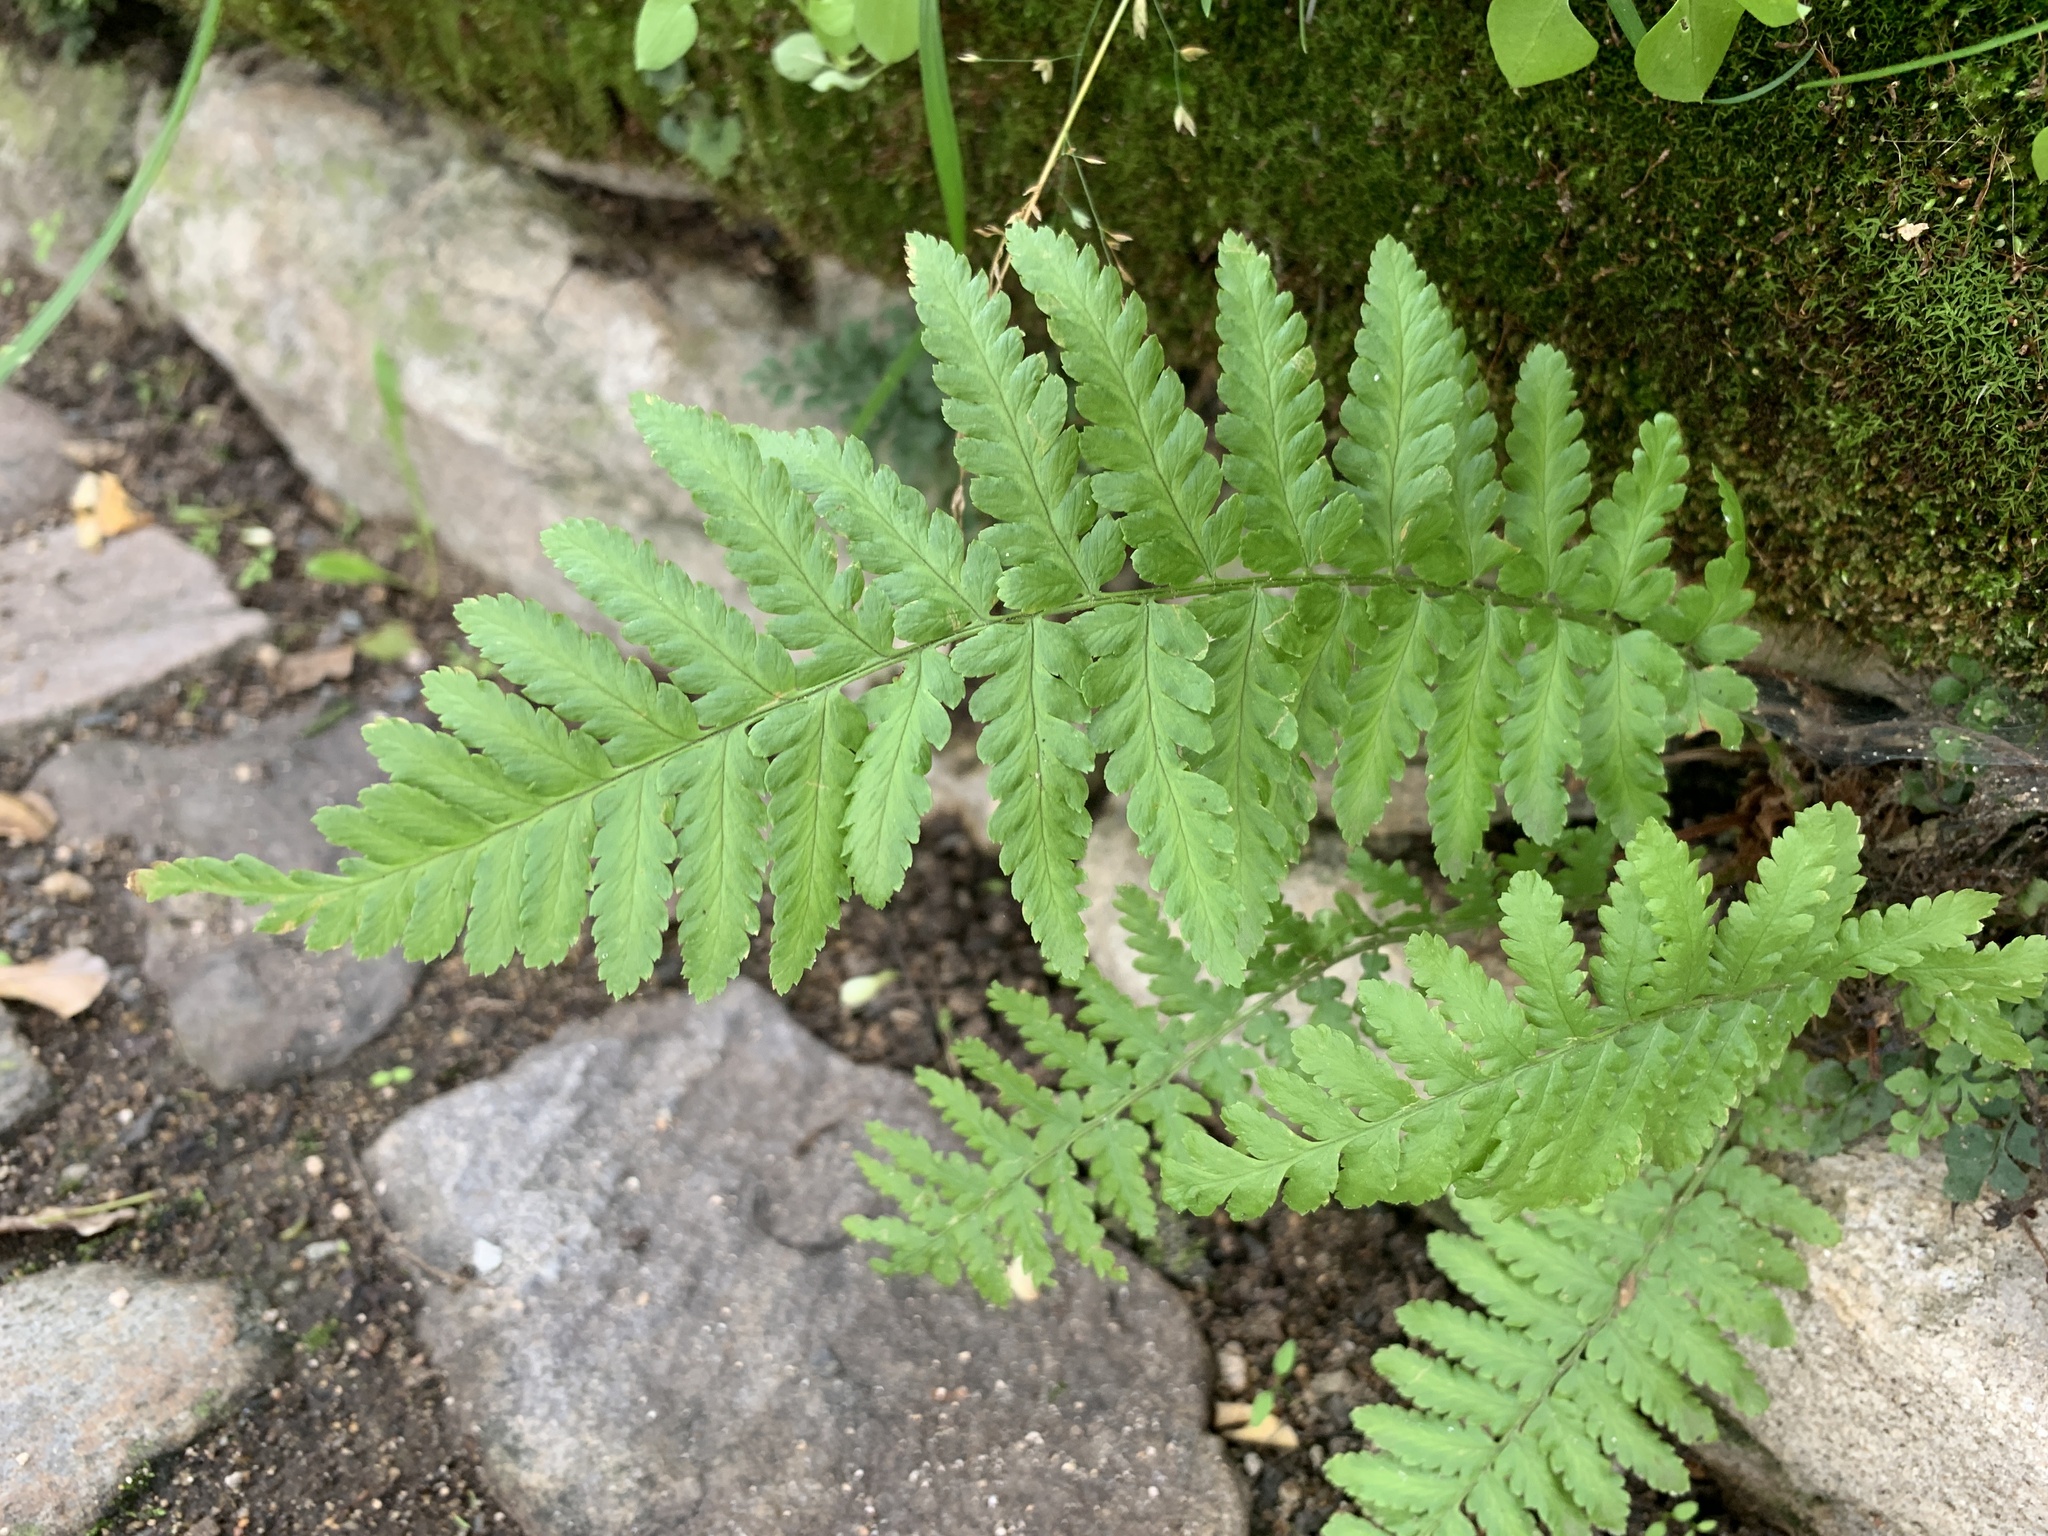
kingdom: Plantae
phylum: Tracheophyta
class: Polypodiopsida
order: Polypodiales
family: Dryopteridaceae
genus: Dryopteris
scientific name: Dryopteris filix-mas
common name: Male fern
